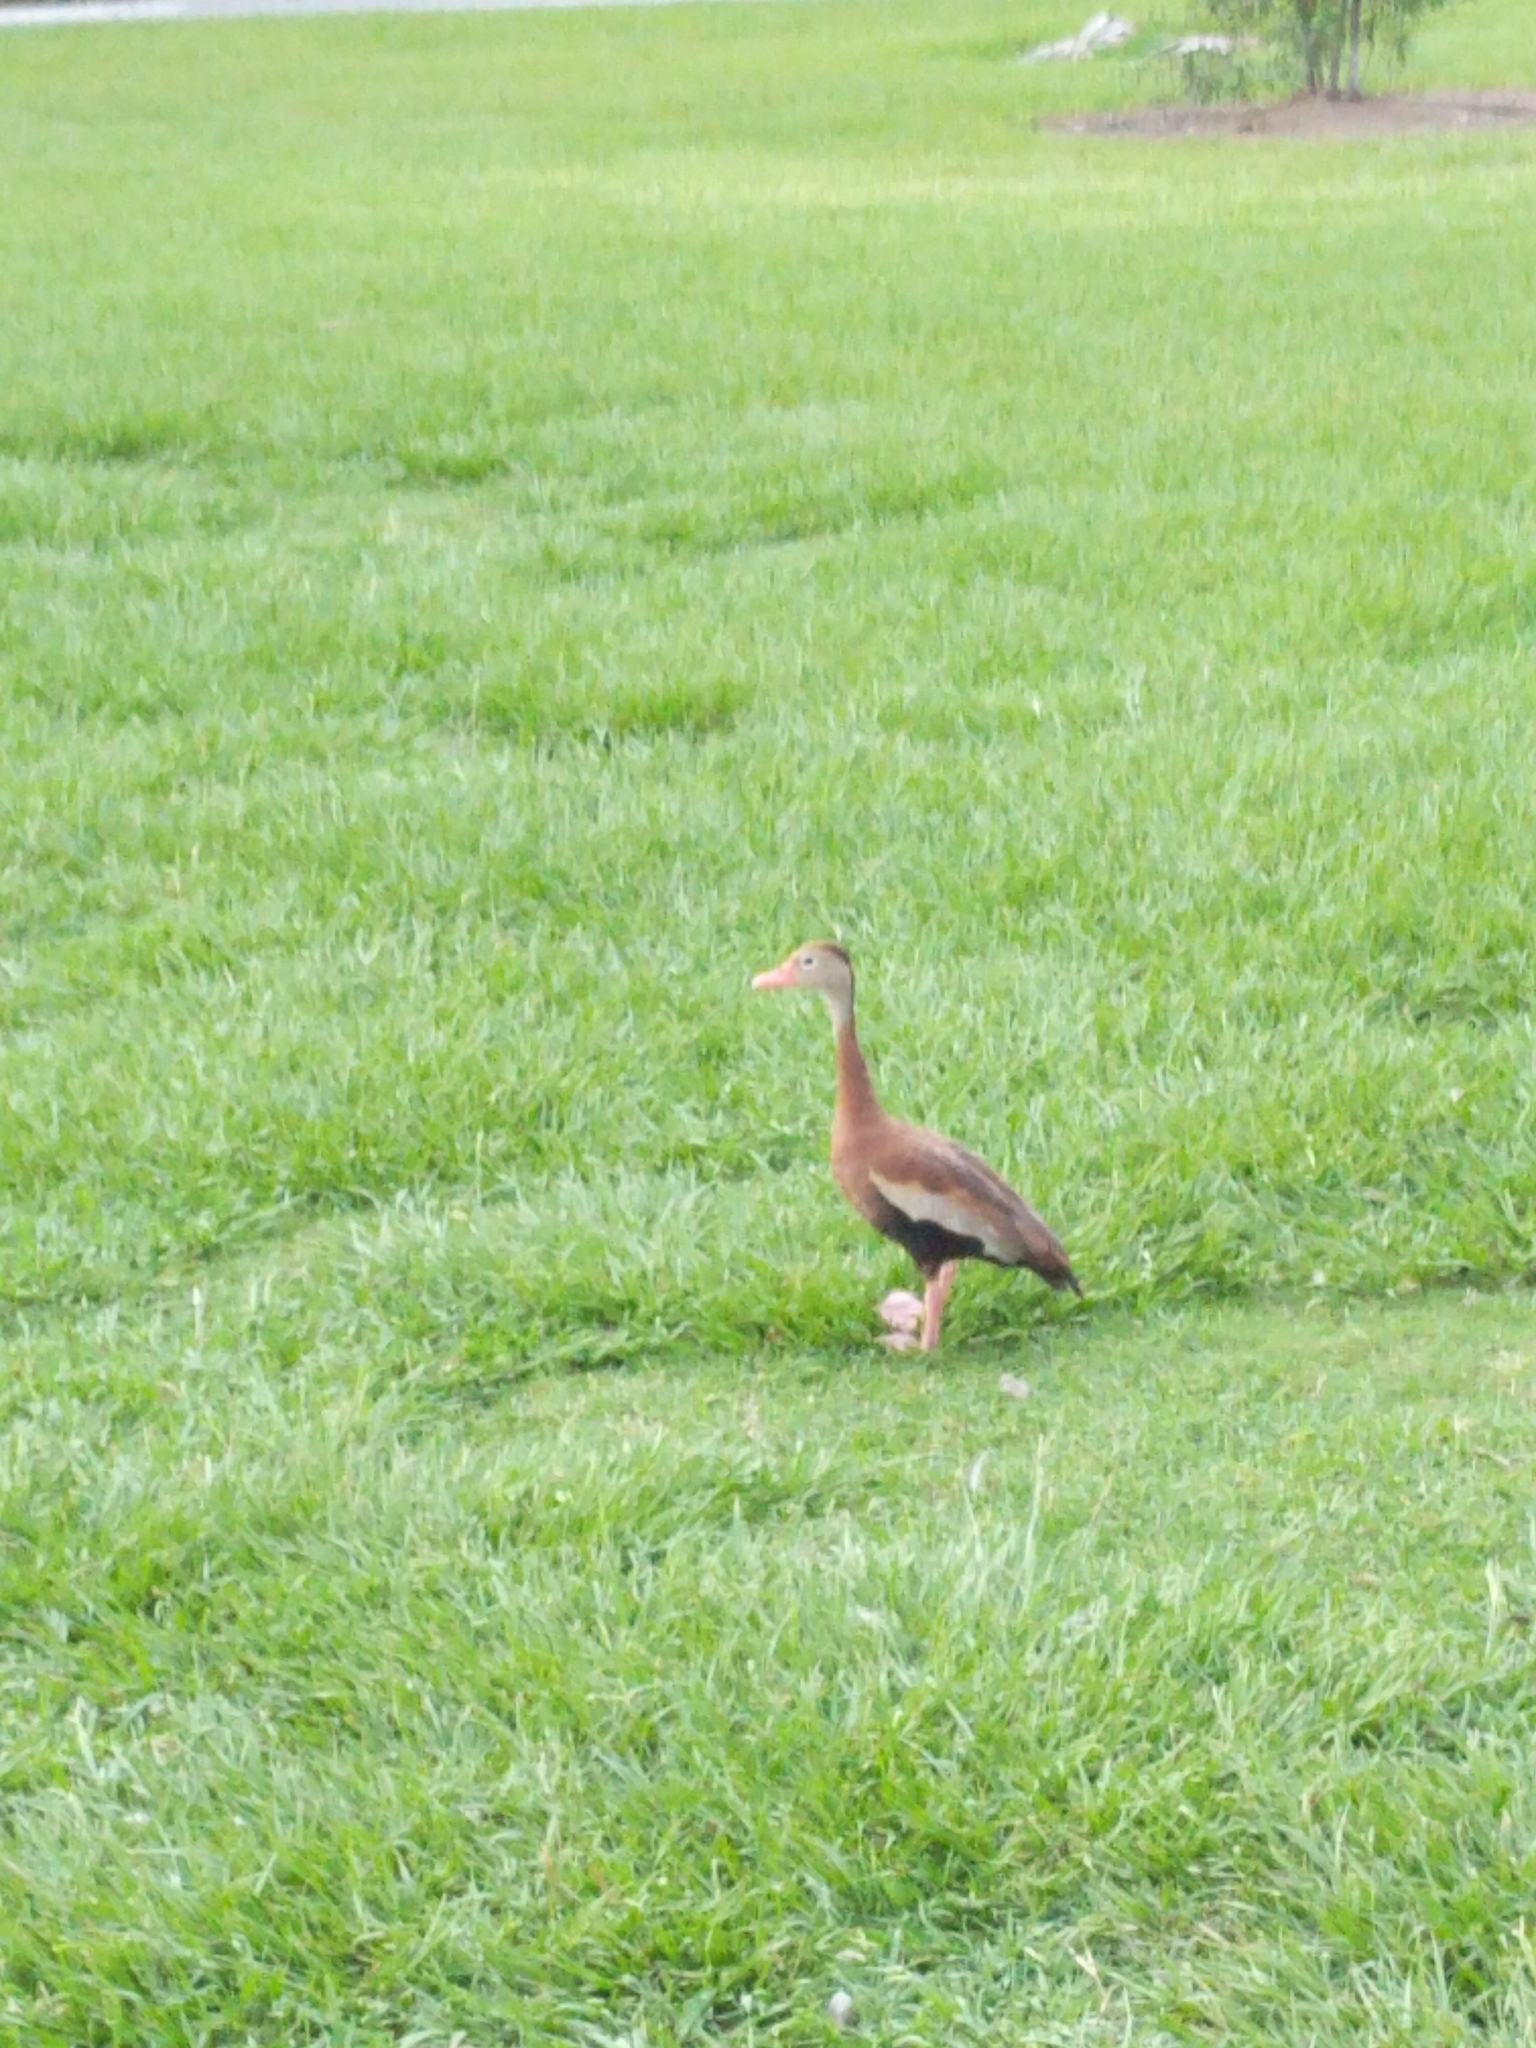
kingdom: Animalia
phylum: Chordata
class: Aves
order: Anseriformes
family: Anatidae
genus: Dendrocygna
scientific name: Dendrocygna autumnalis
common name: Black-bellied whistling duck
